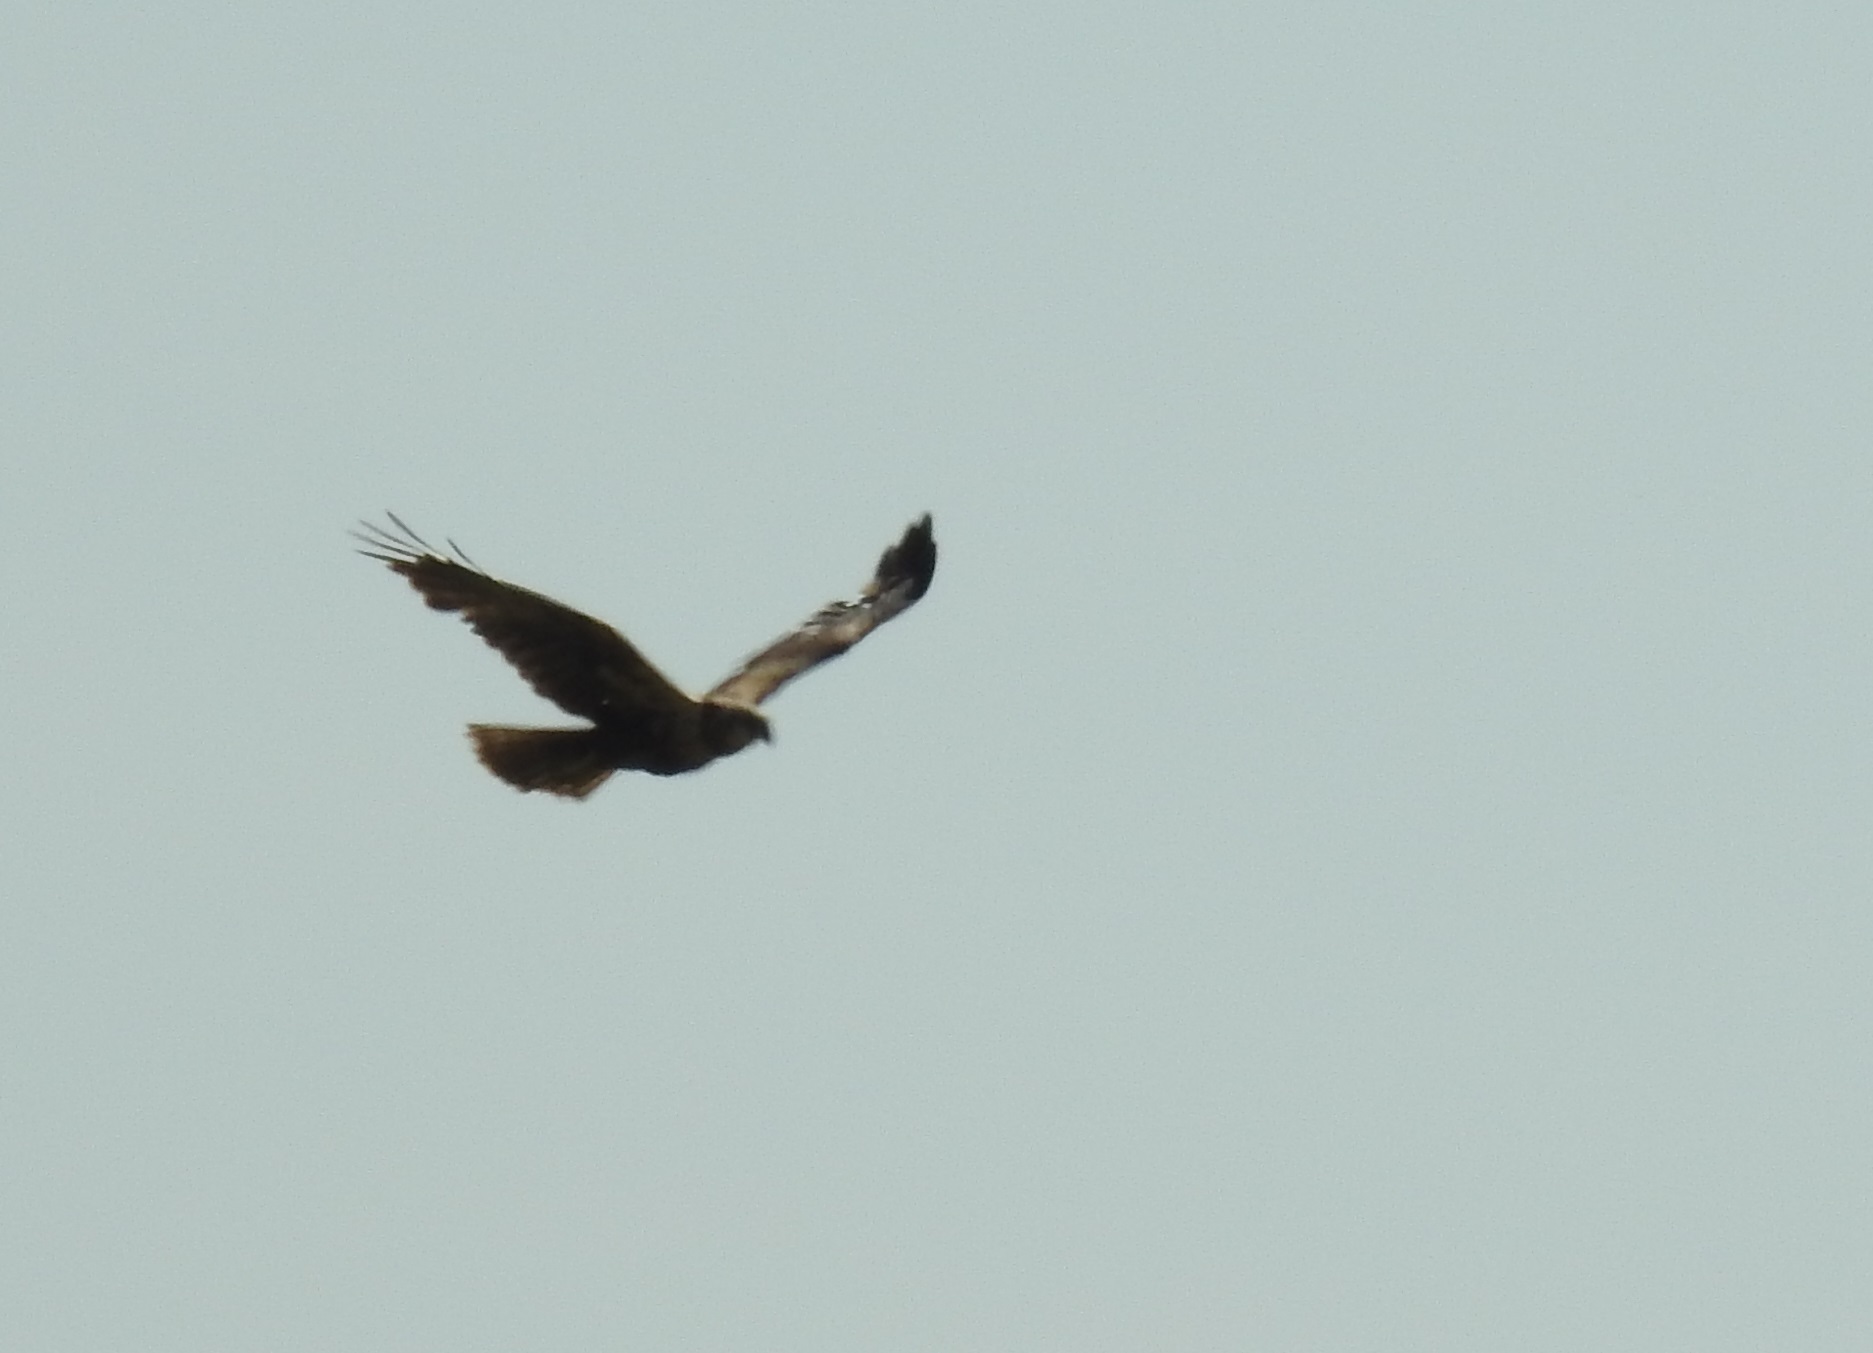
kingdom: Animalia
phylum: Chordata
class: Aves
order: Accipitriformes
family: Accipitridae
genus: Circus
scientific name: Circus aeruginosus
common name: Western marsh harrier
